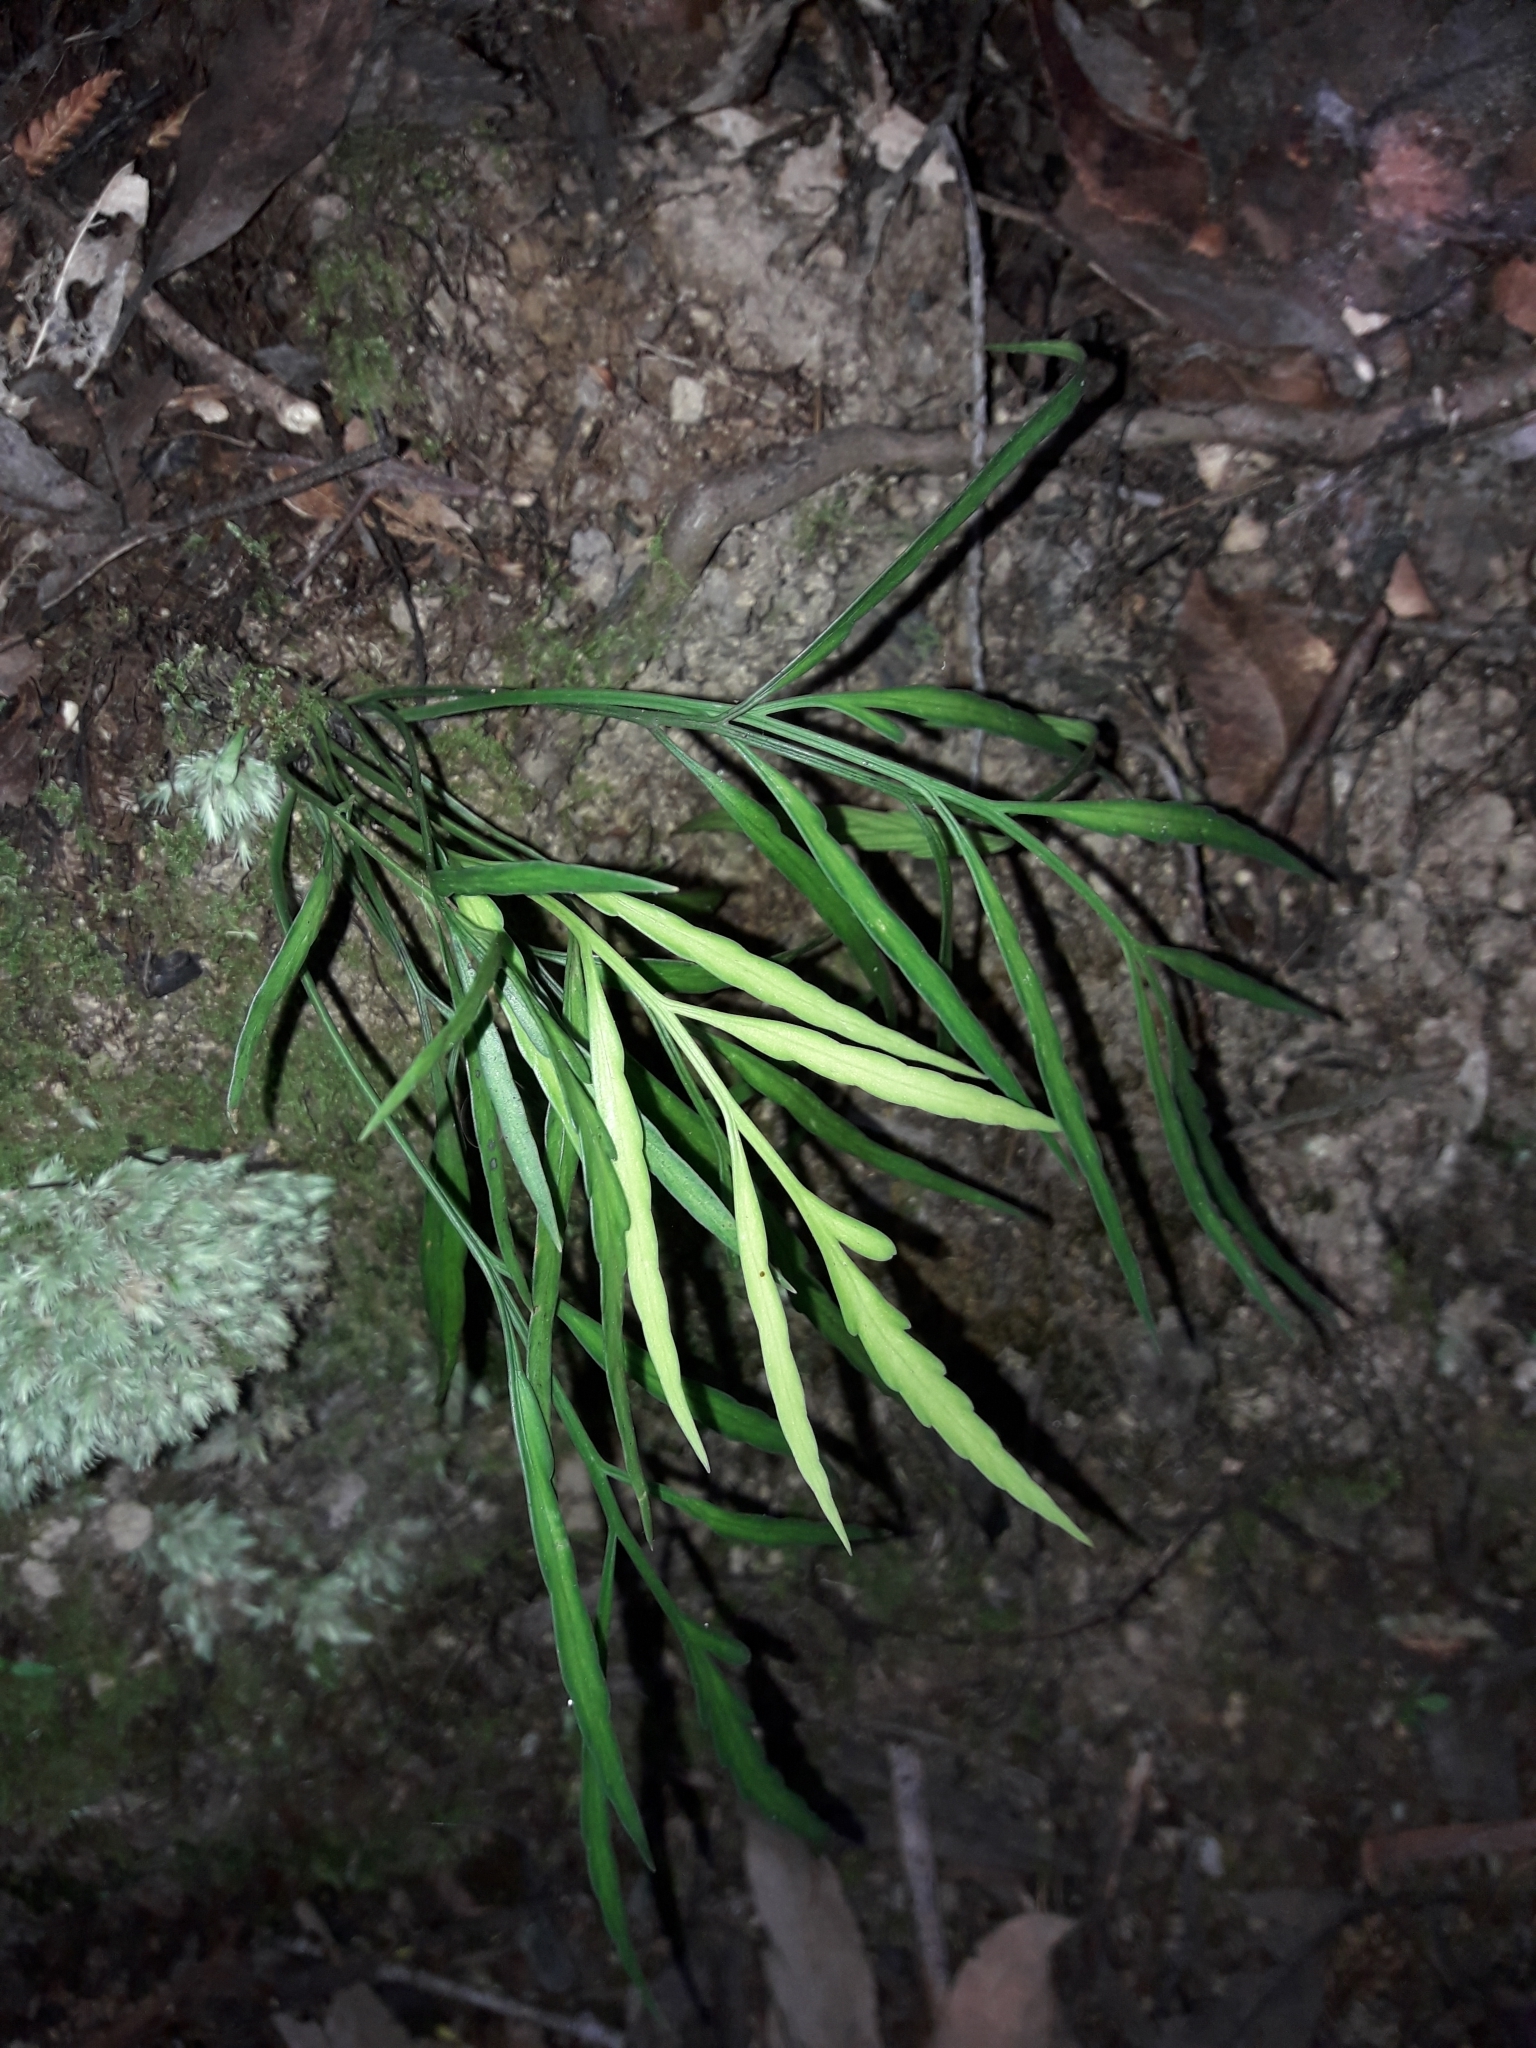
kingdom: Plantae
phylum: Tracheophyta
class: Polypodiopsida
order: Polypodiales
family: Aspleniaceae
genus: Asplenium
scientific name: Asplenium flaccidum
